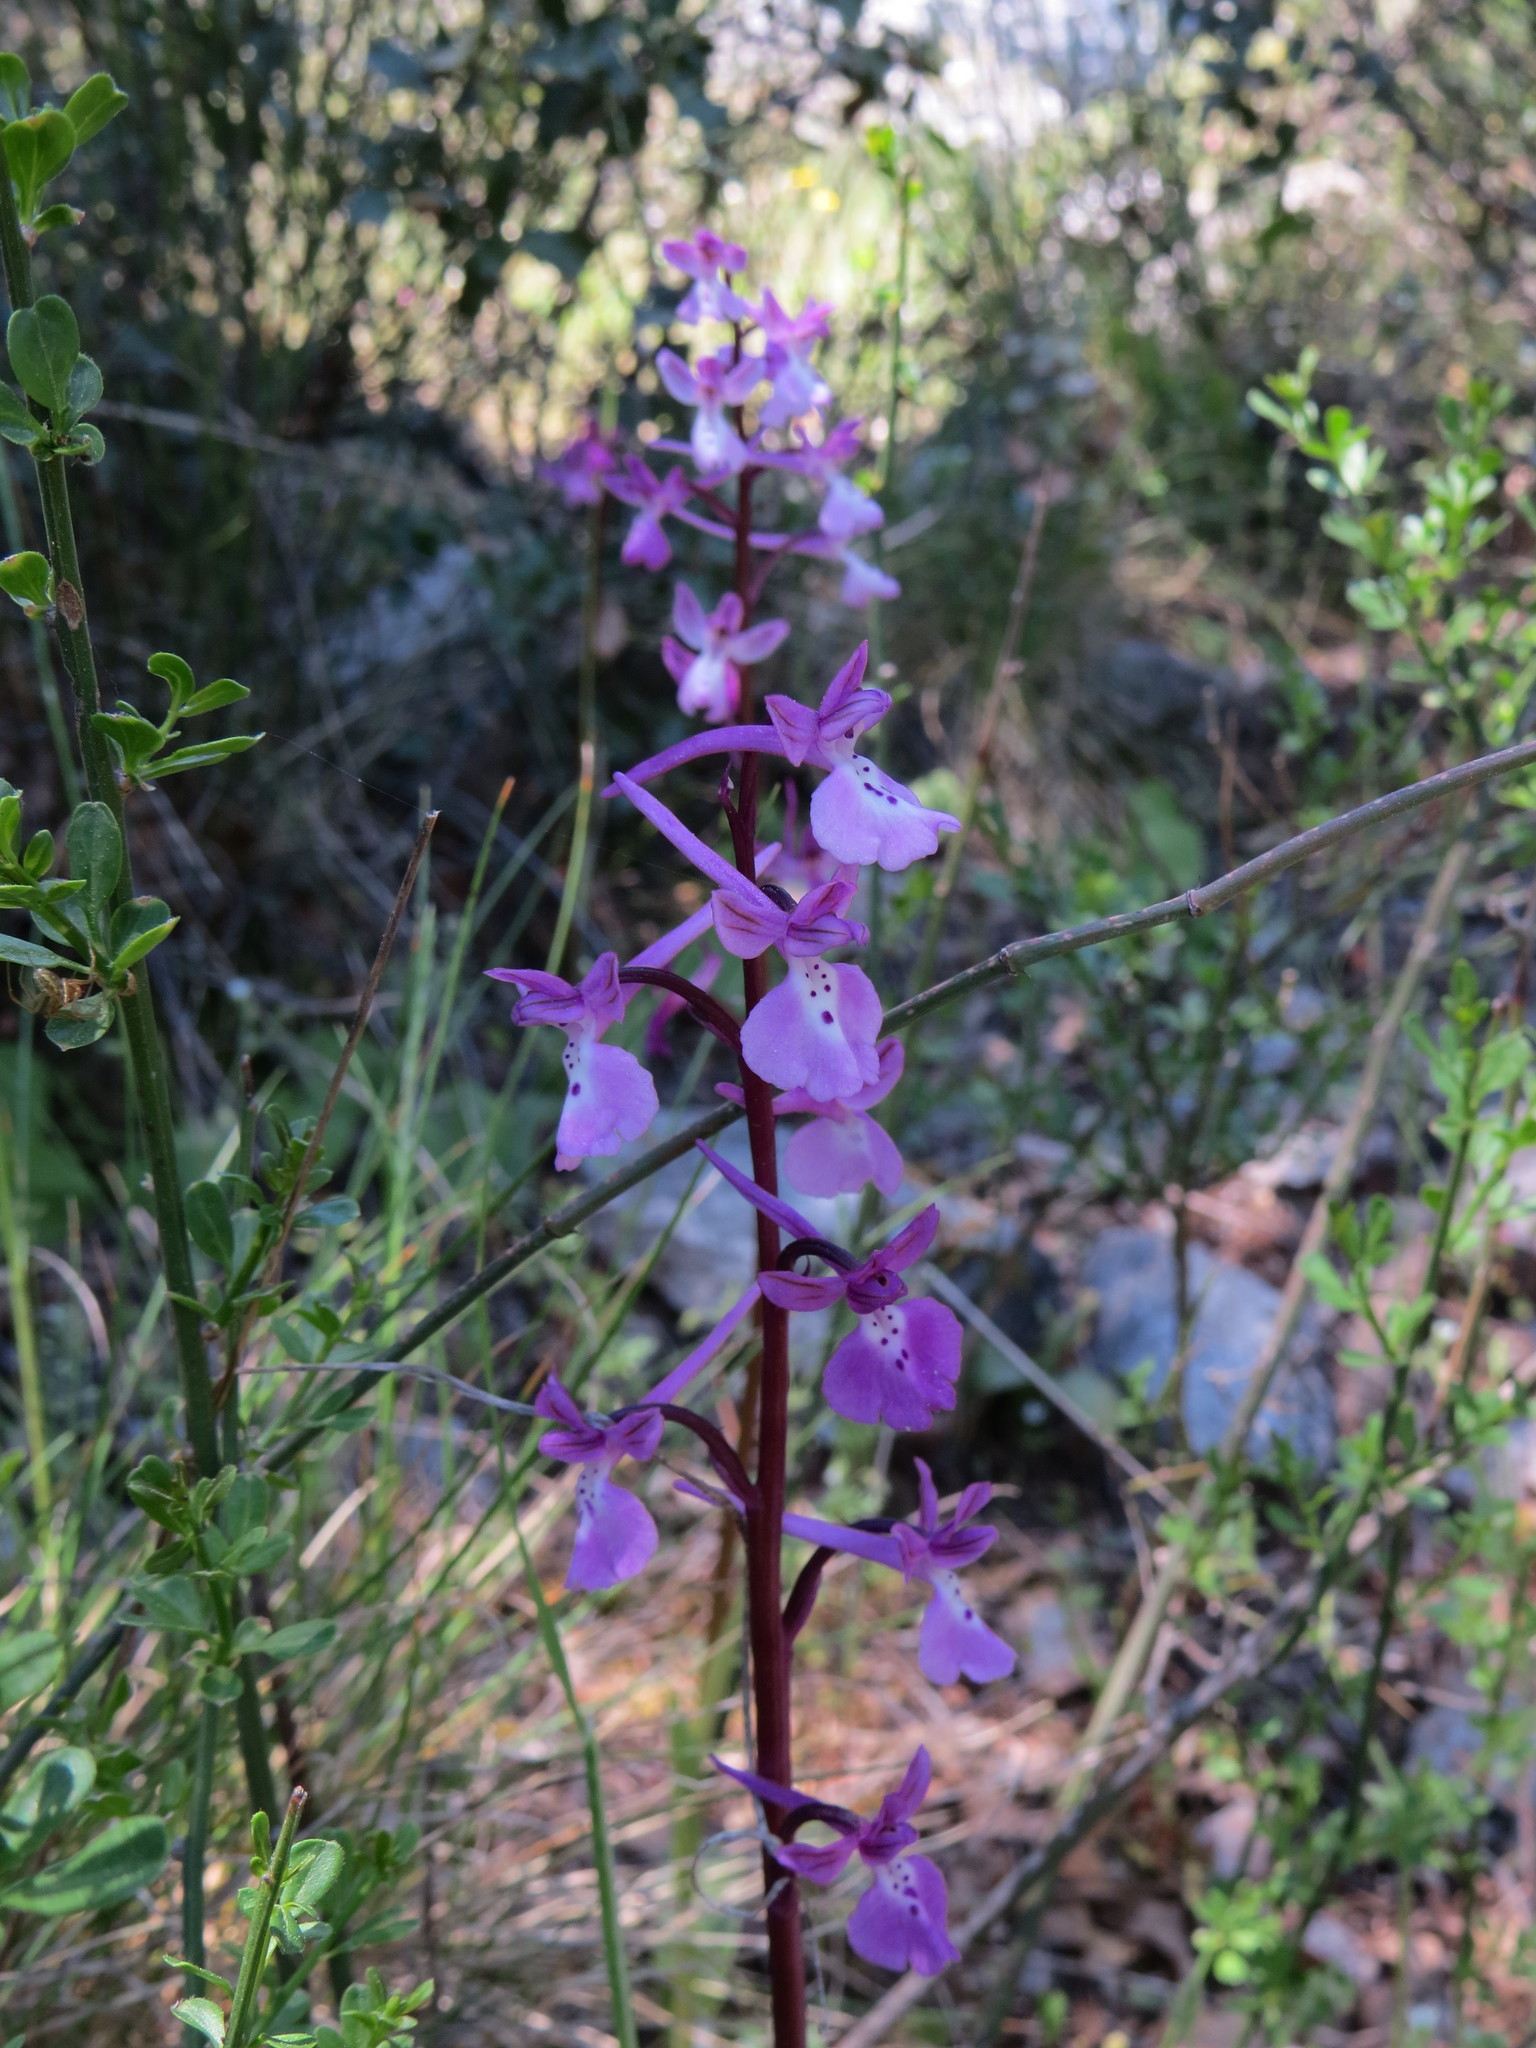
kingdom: Plantae
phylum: Tracheophyta
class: Liliopsida
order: Asparagales
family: Orchidaceae
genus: Orchis
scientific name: Orchis anatolica
